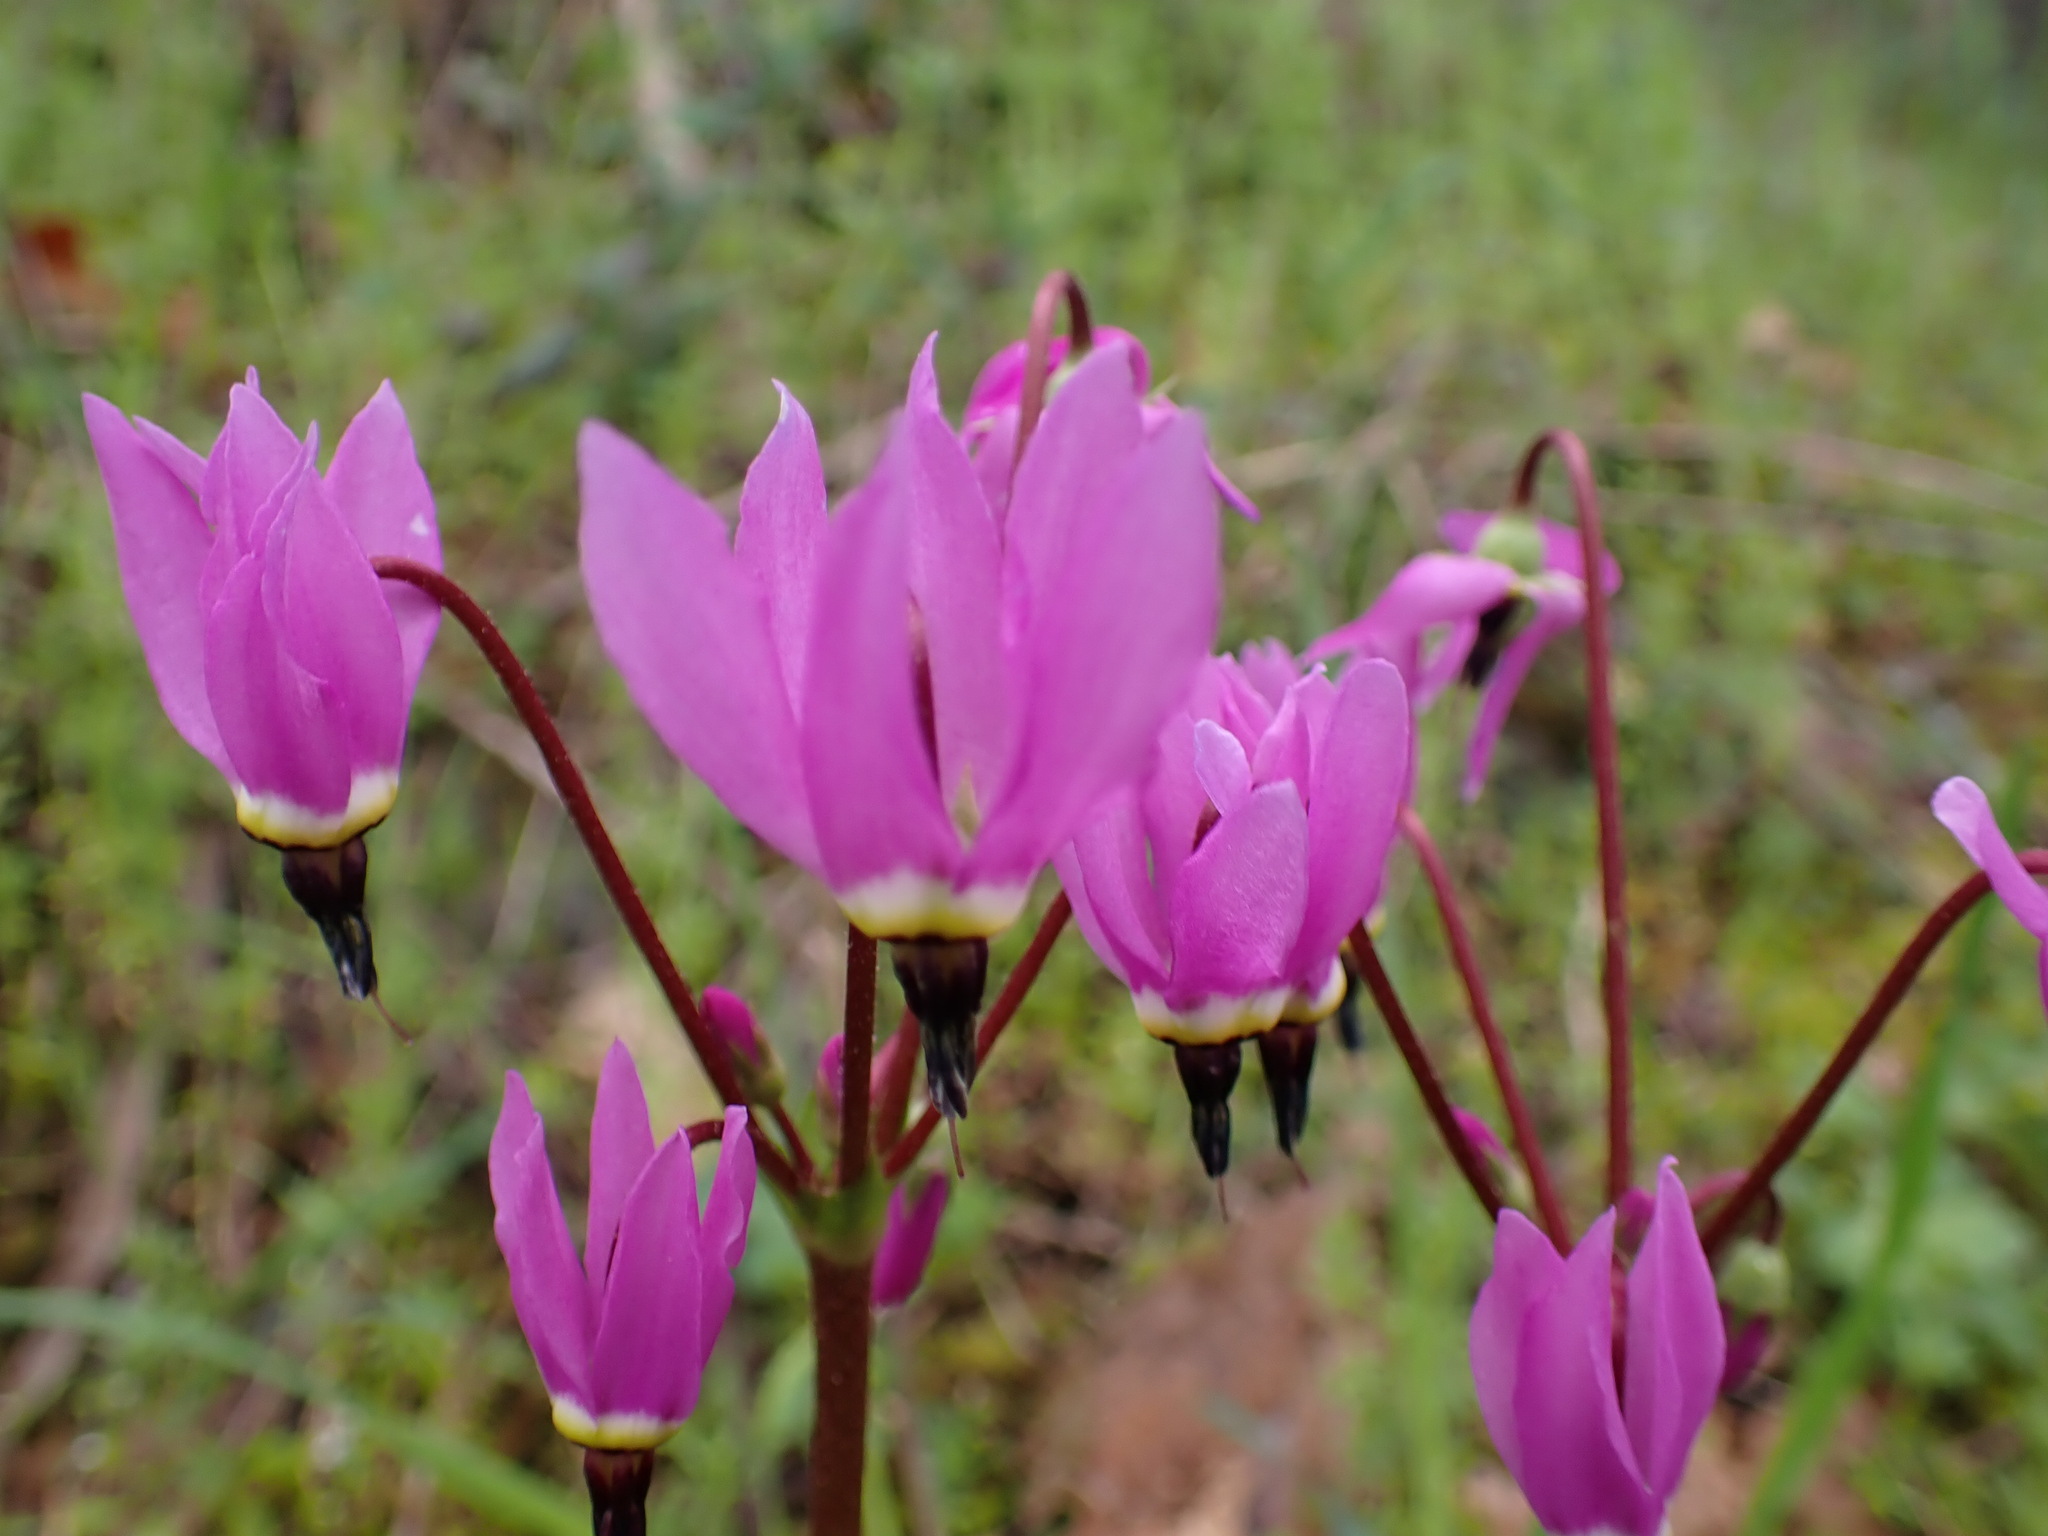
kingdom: Plantae
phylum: Tracheophyta
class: Magnoliopsida
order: Ericales
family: Primulaceae
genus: Dodecatheon
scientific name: Dodecatheon hendersonii
